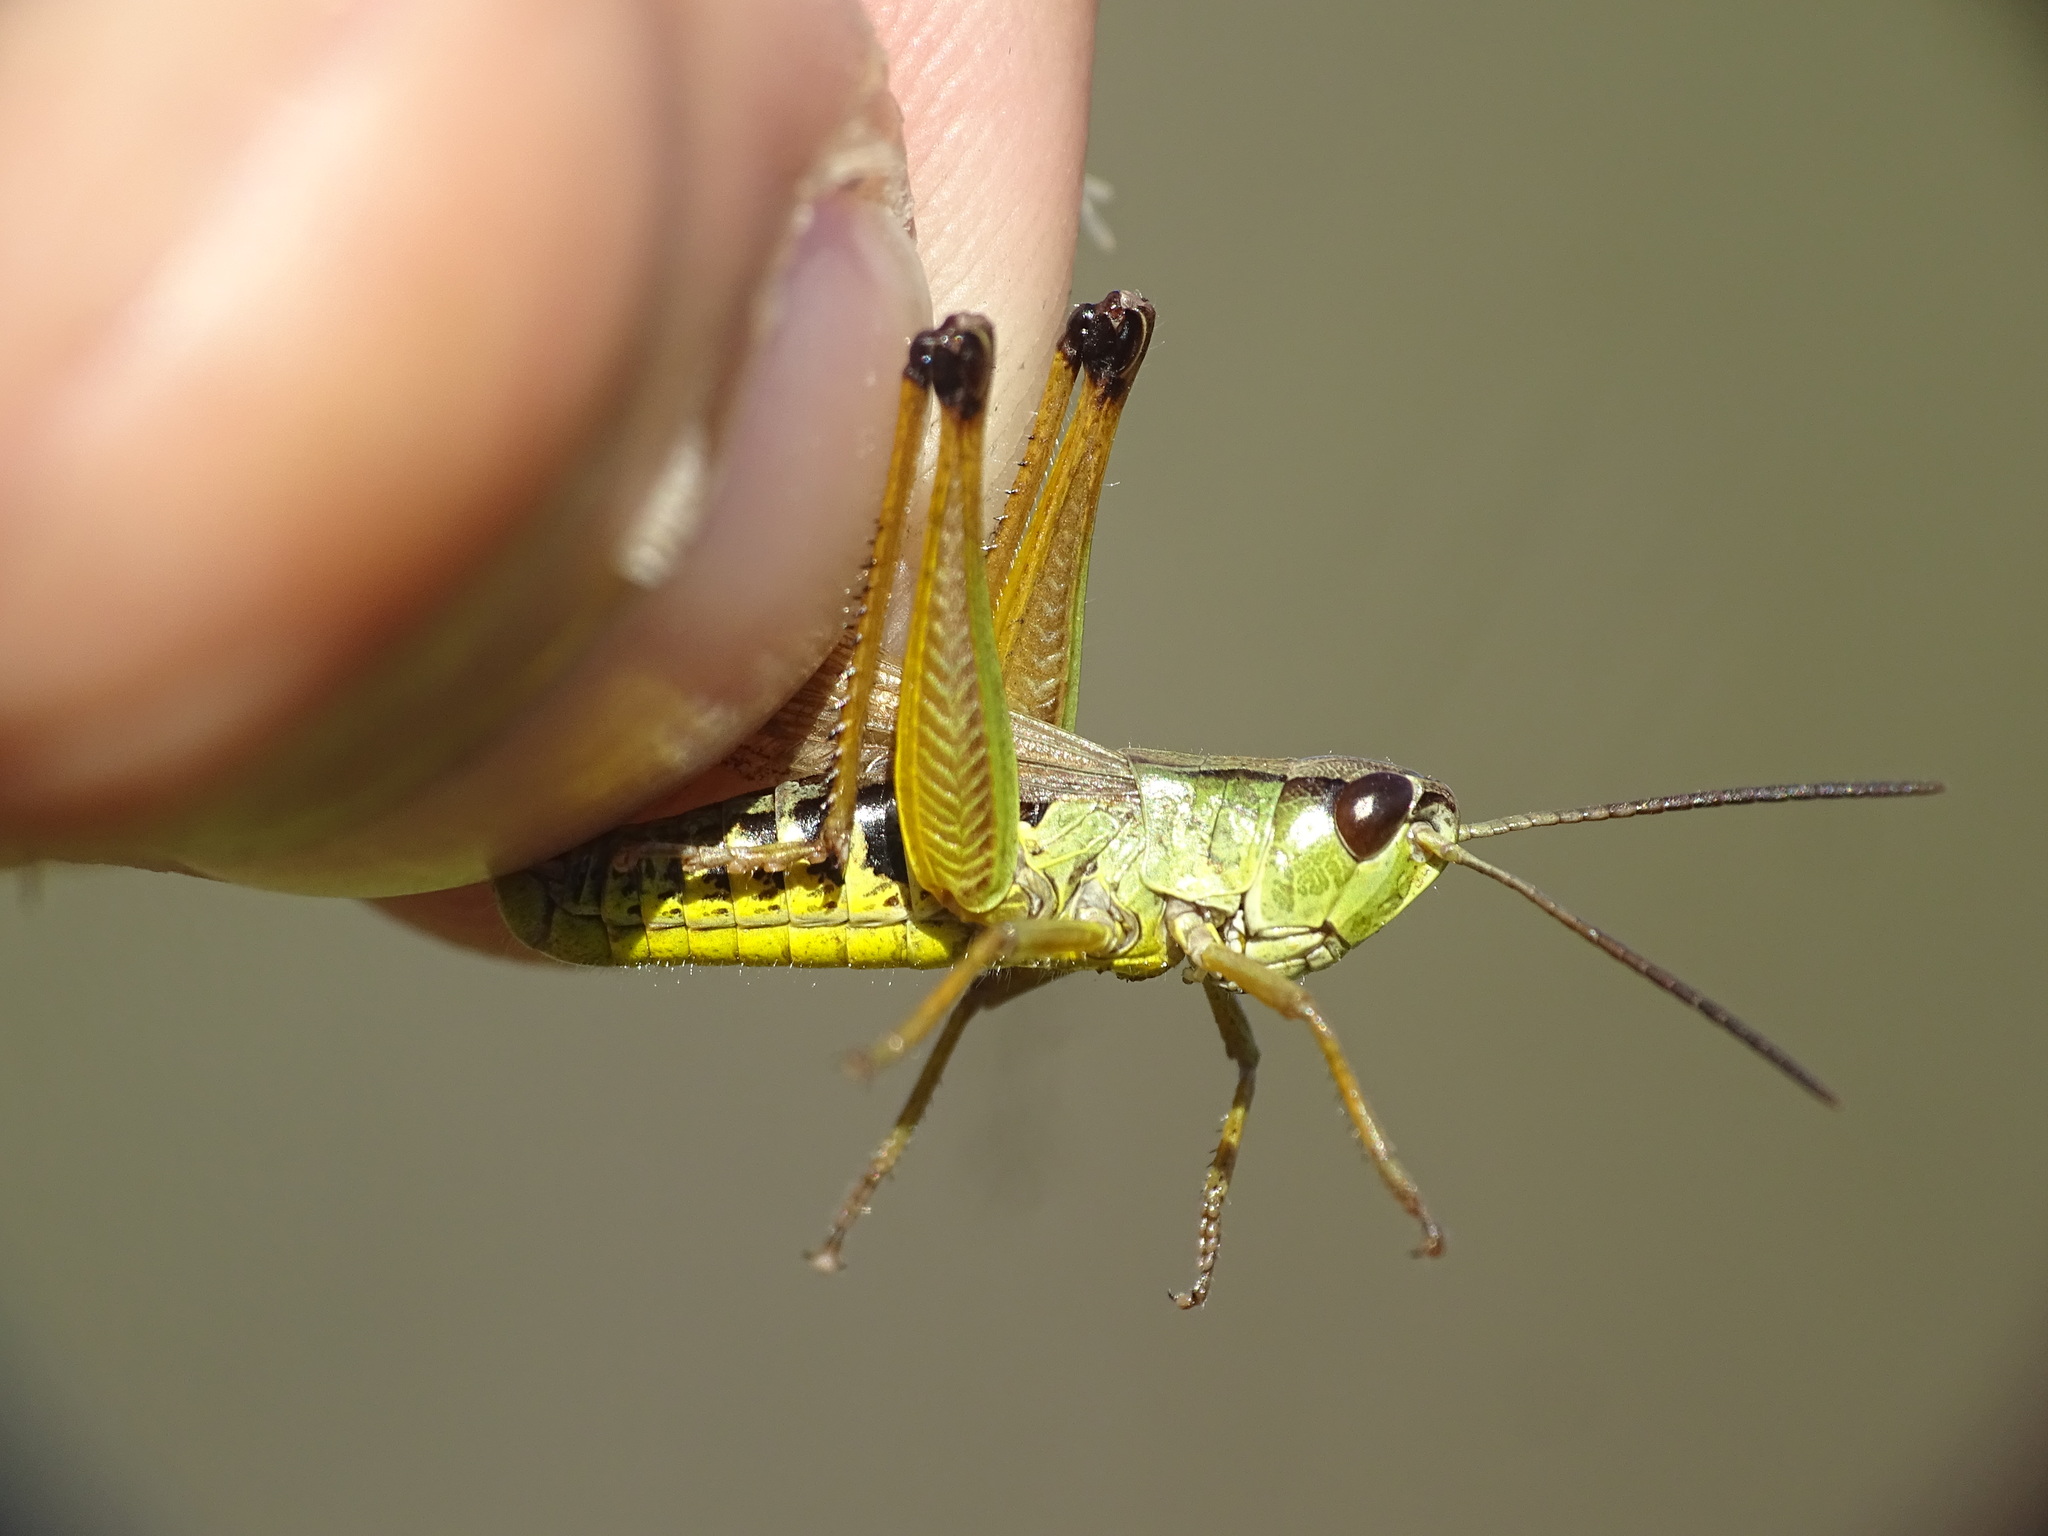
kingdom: Animalia
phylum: Arthropoda
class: Insecta
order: Orthoptera
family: Acrididae
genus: Pseudochorthippus
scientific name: Pseudochorthippus curtipennis
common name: Marsh meadow grasshopper
